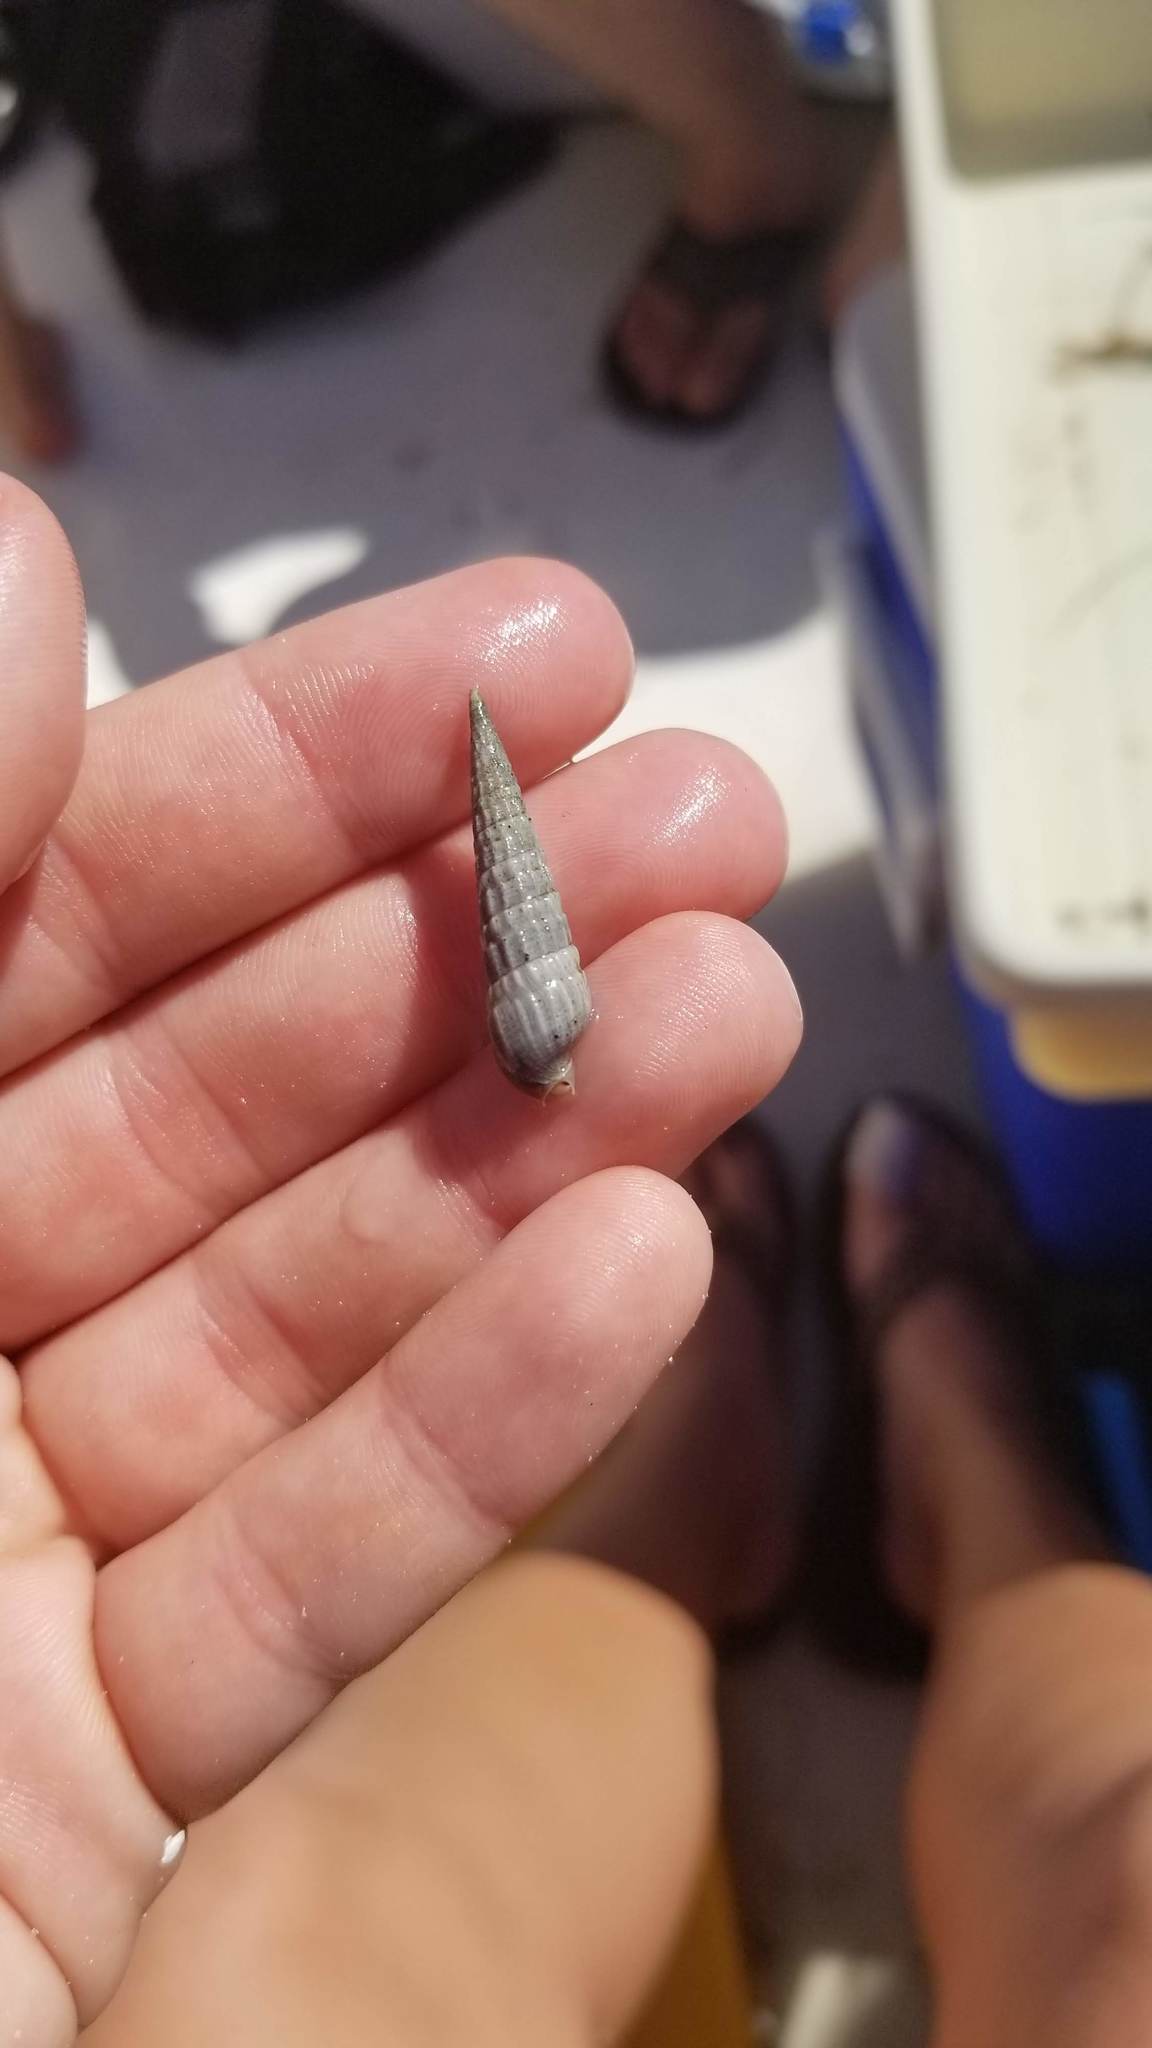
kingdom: Animalia
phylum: Mollusca
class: Gastropoda
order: Neogastropoda
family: Terebridae
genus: Neoterebra
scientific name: Neoterebra dislocata
